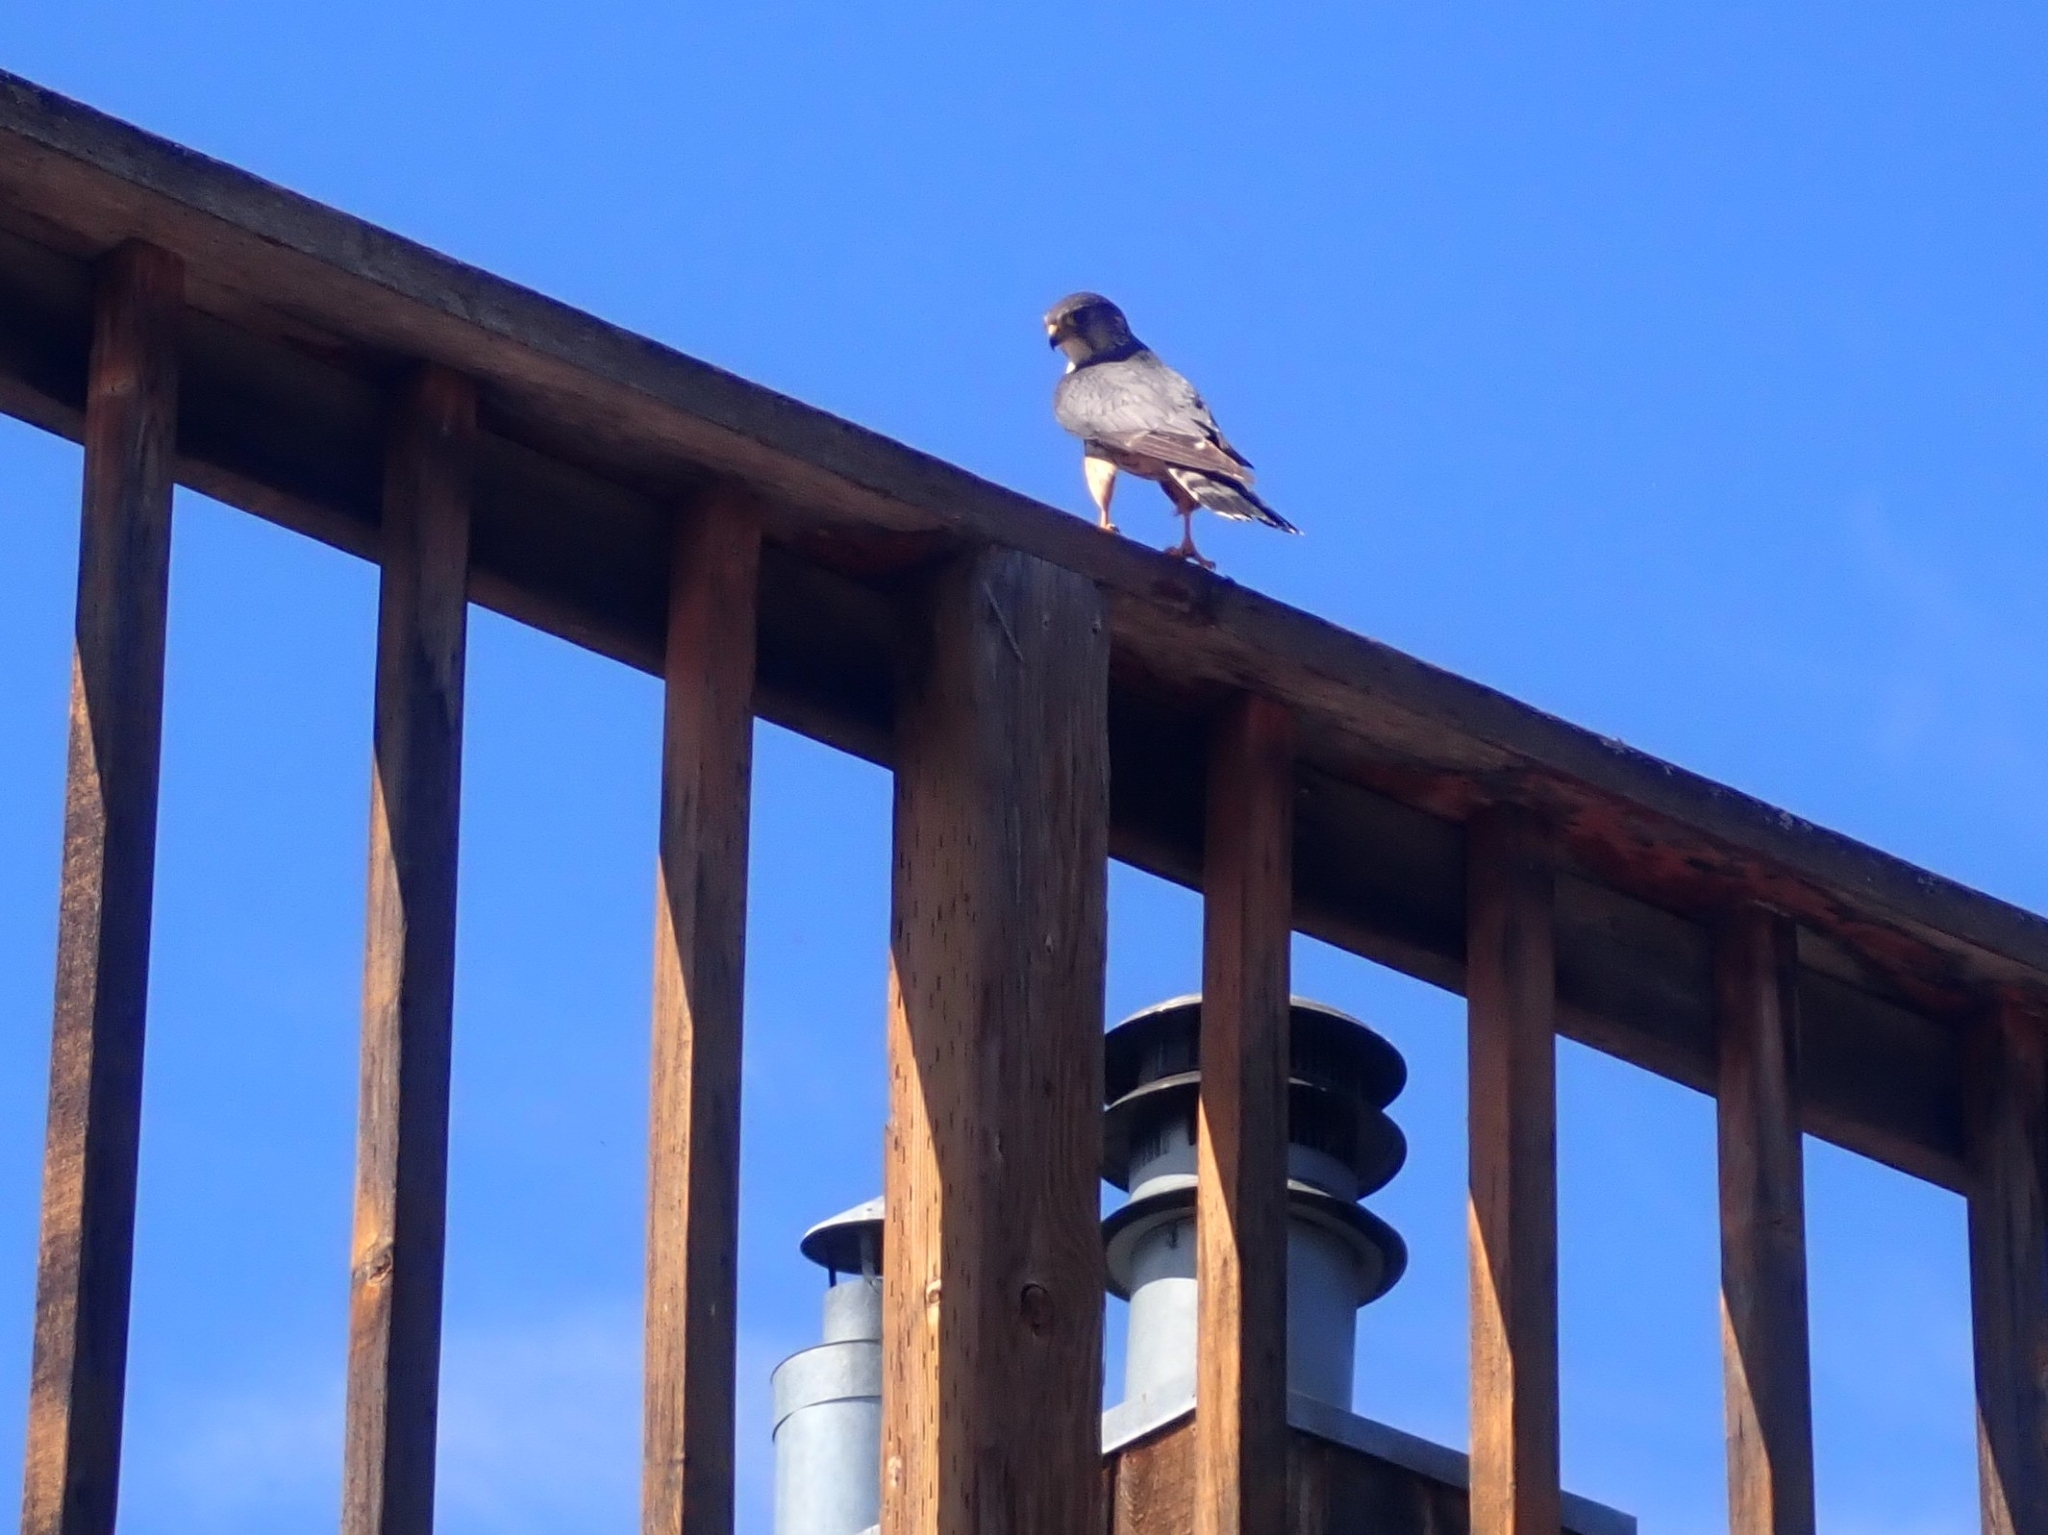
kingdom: Animalia
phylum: Chordata
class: Aves
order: Falconiformes
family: Falconidae
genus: Falco
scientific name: Falco columbarius
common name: Merlin
